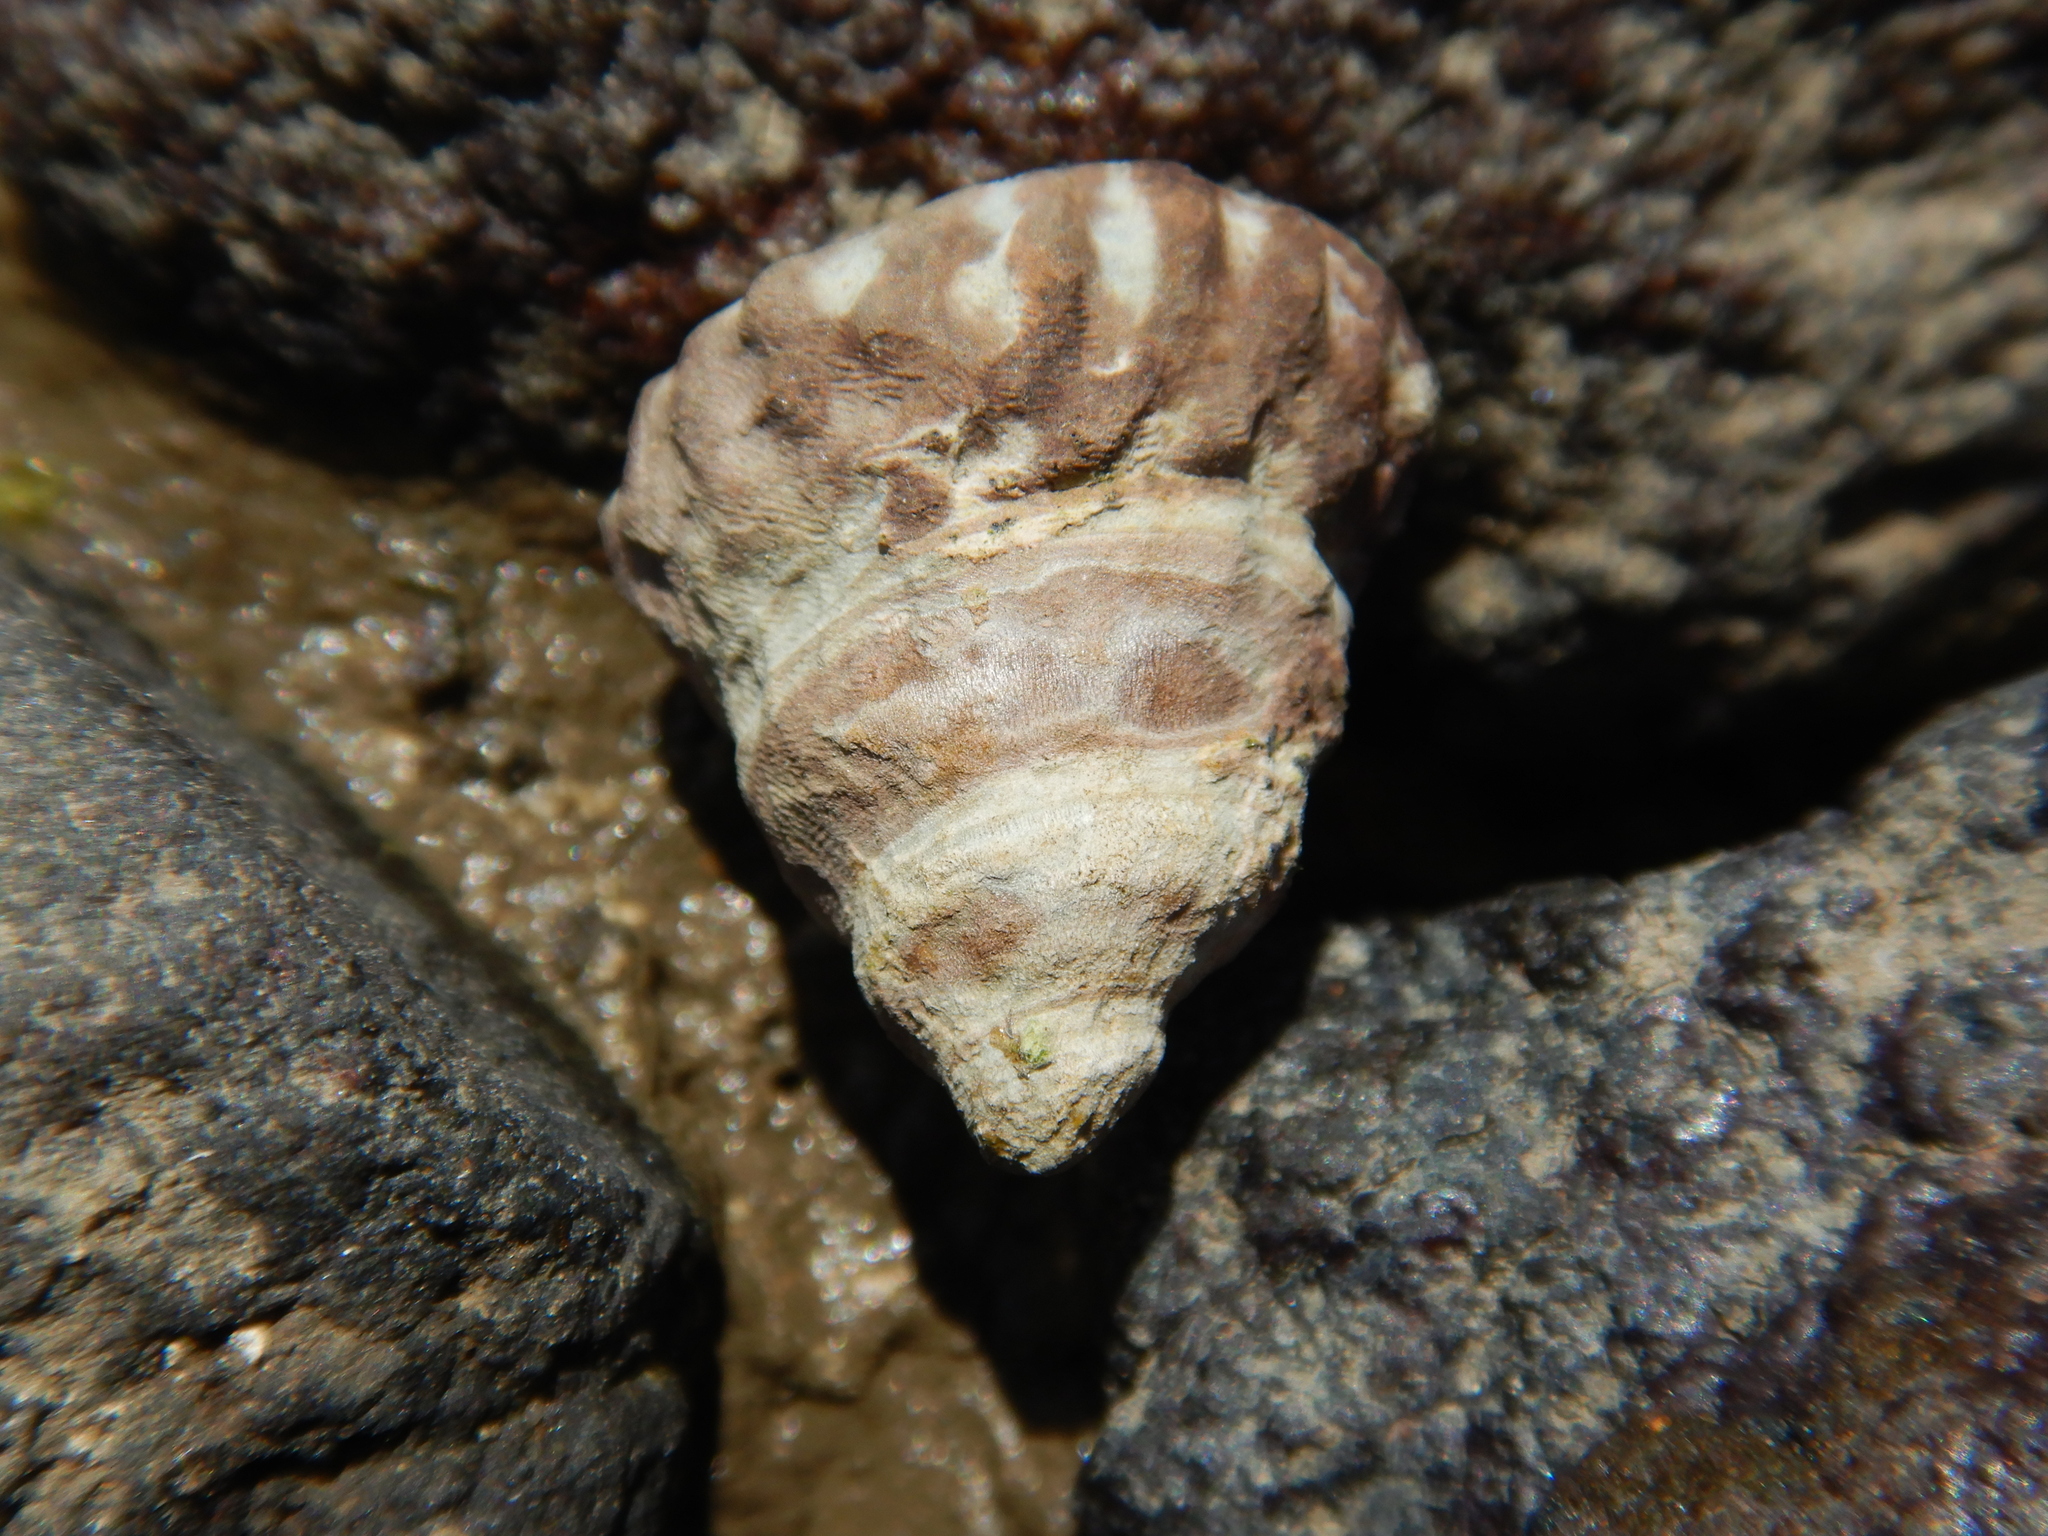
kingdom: Animalia
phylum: Mollusca
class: Gastropoda
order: Littorinimorpha
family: Littorinidae
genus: Bembicium
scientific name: Bembicium auratum
